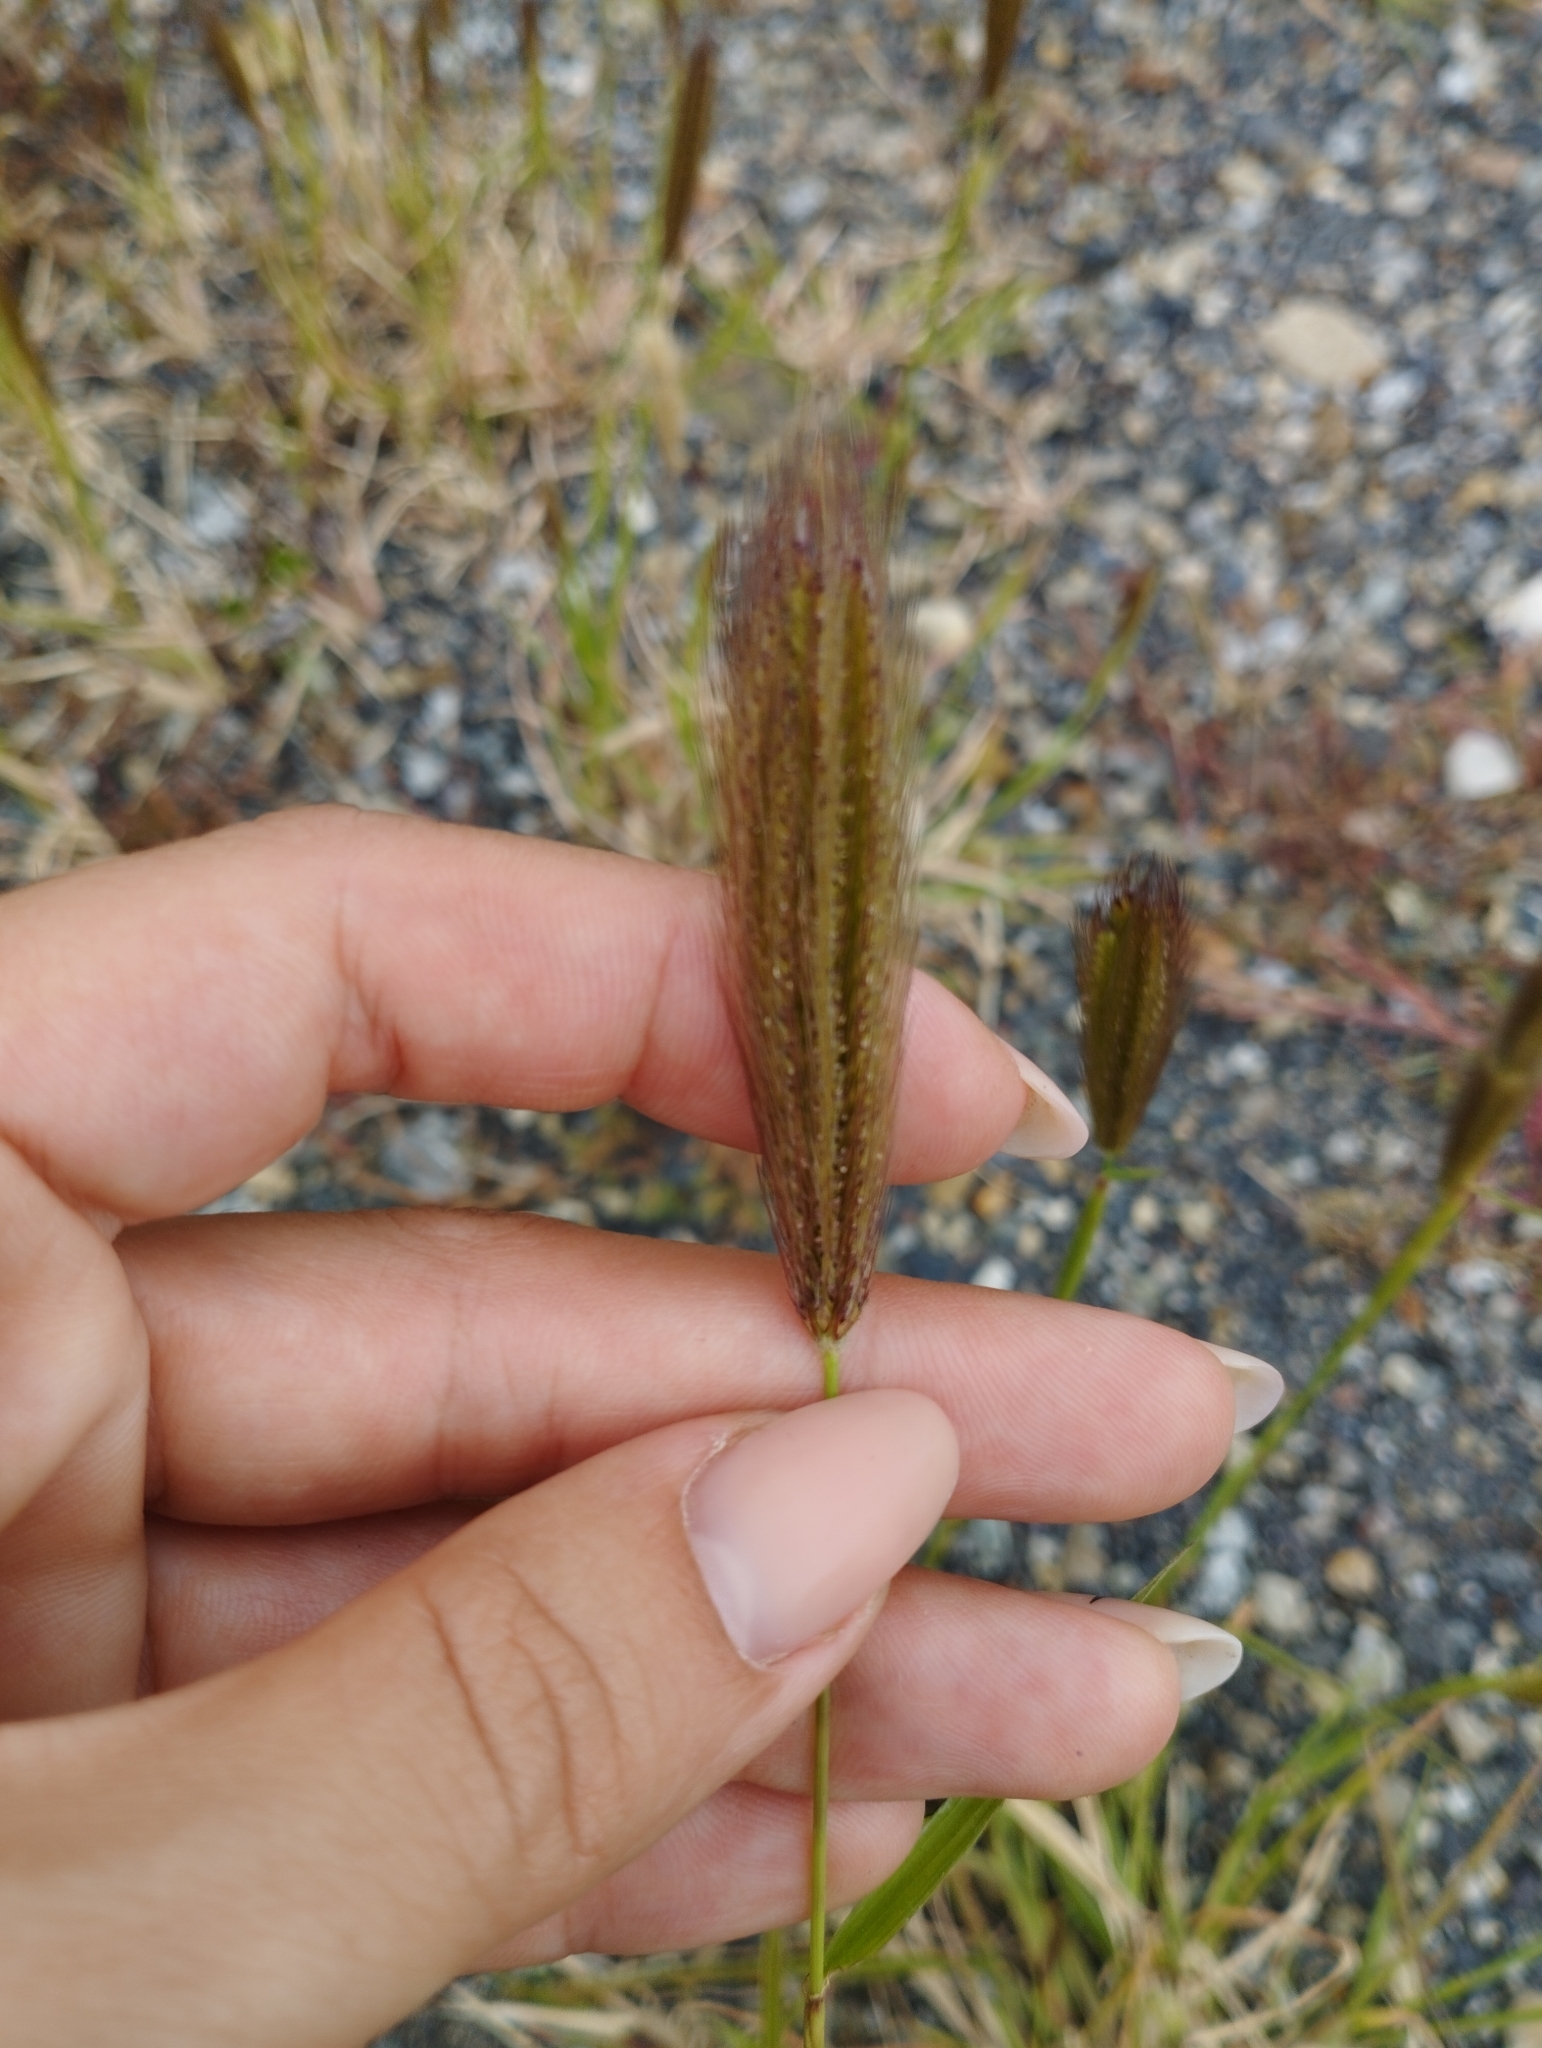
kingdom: Plantae
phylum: Tracheophyta
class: Liliopsida
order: Poales
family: Poaceae
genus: Chloris
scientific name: Chloris virgata
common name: Feathery rhodes-grass
